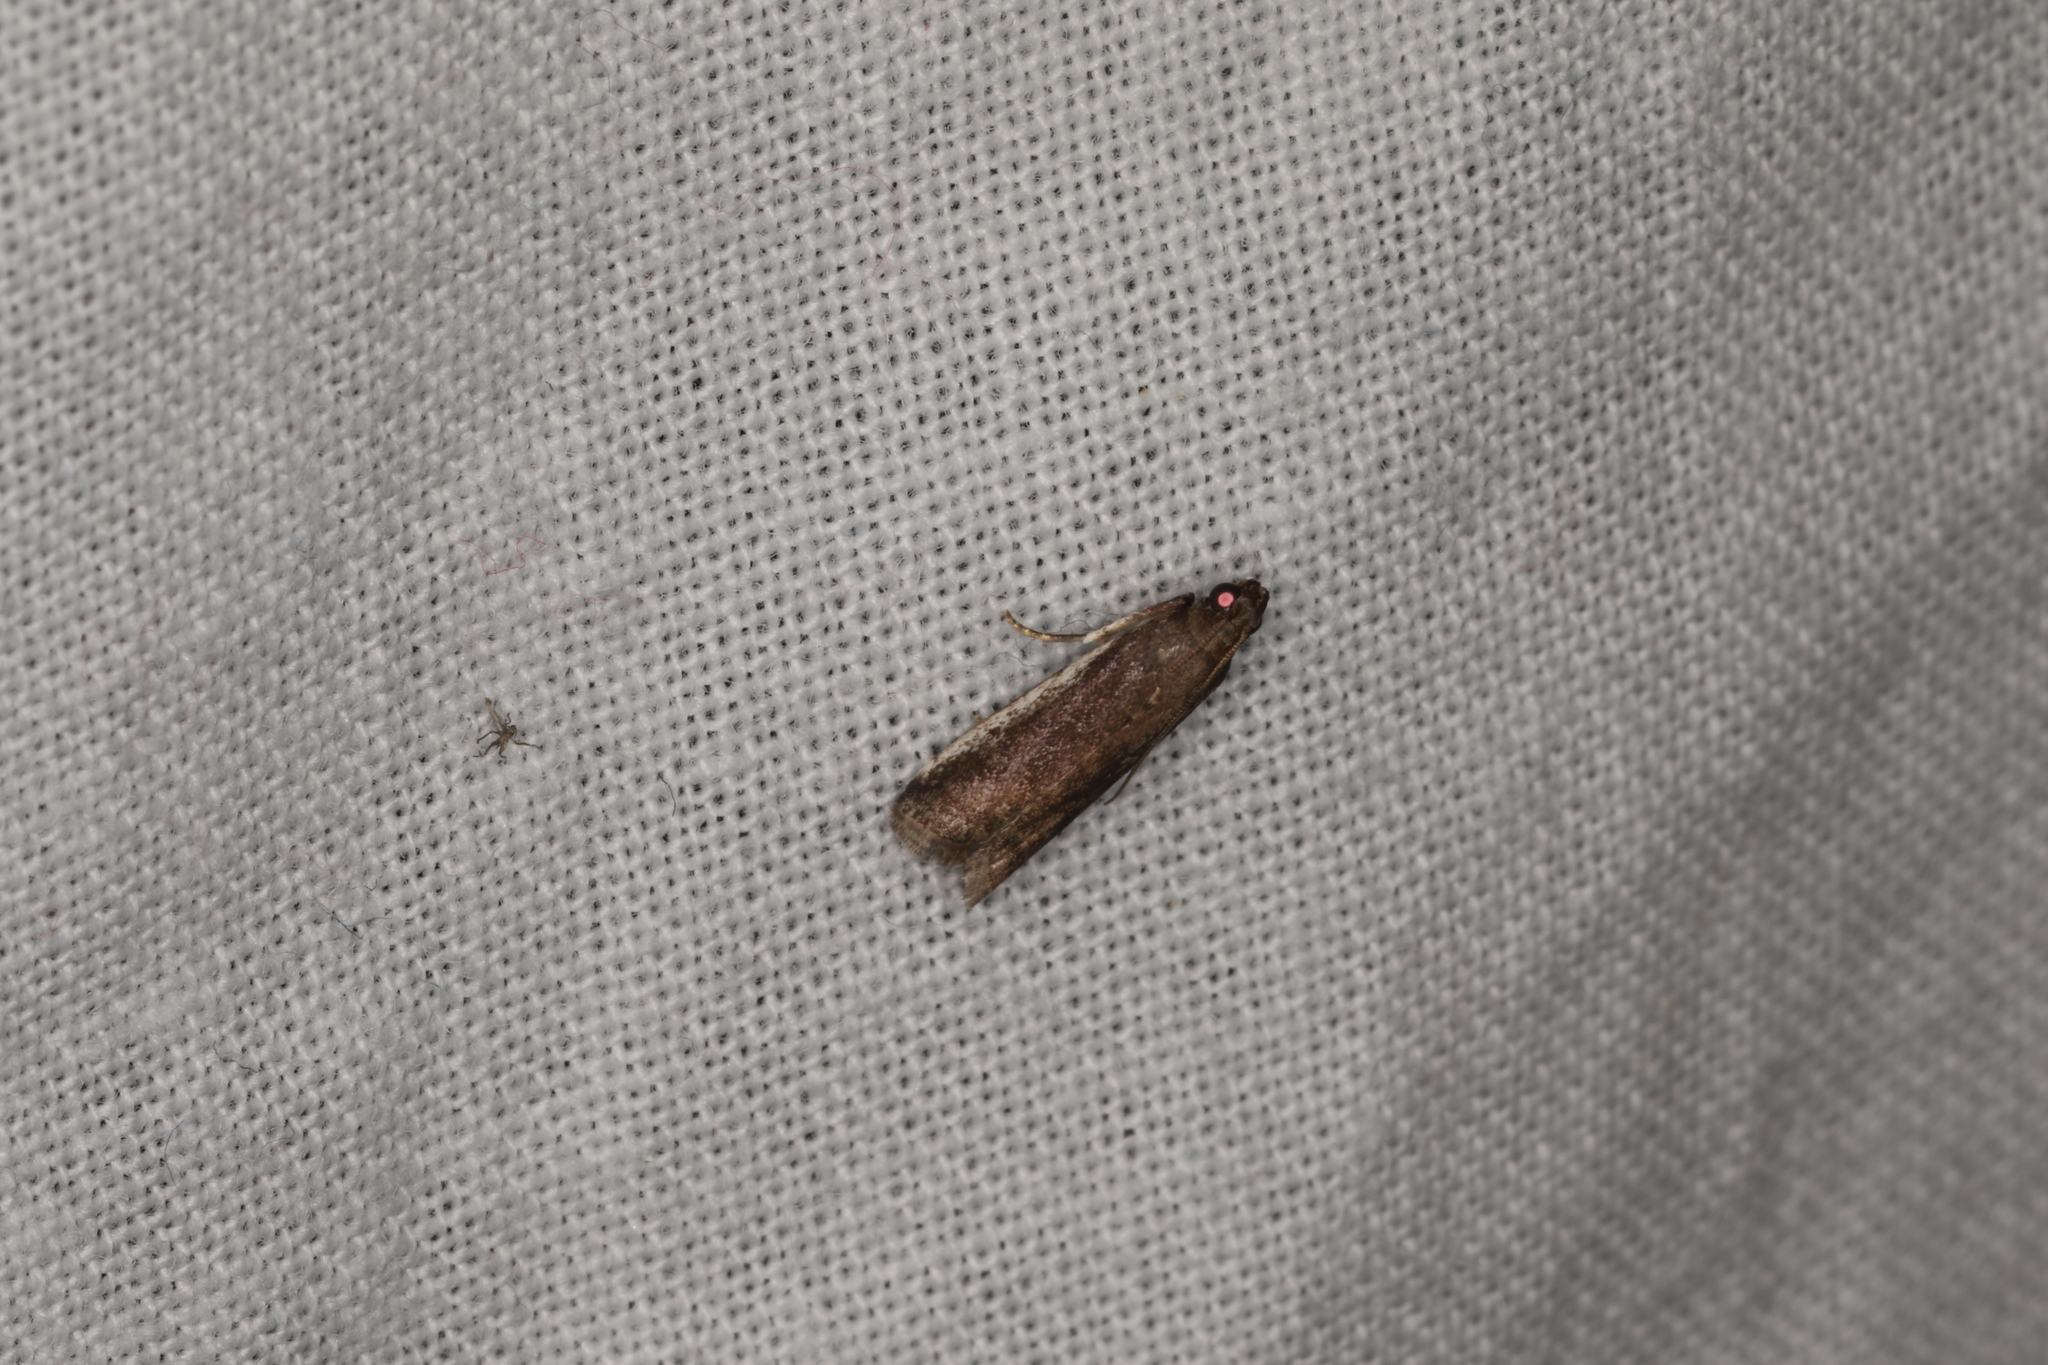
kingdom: Animalia
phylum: Arthropoda
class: Insecta
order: Lepidoptera
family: Pyralidae
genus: Assara
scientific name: Assara subarcuella
